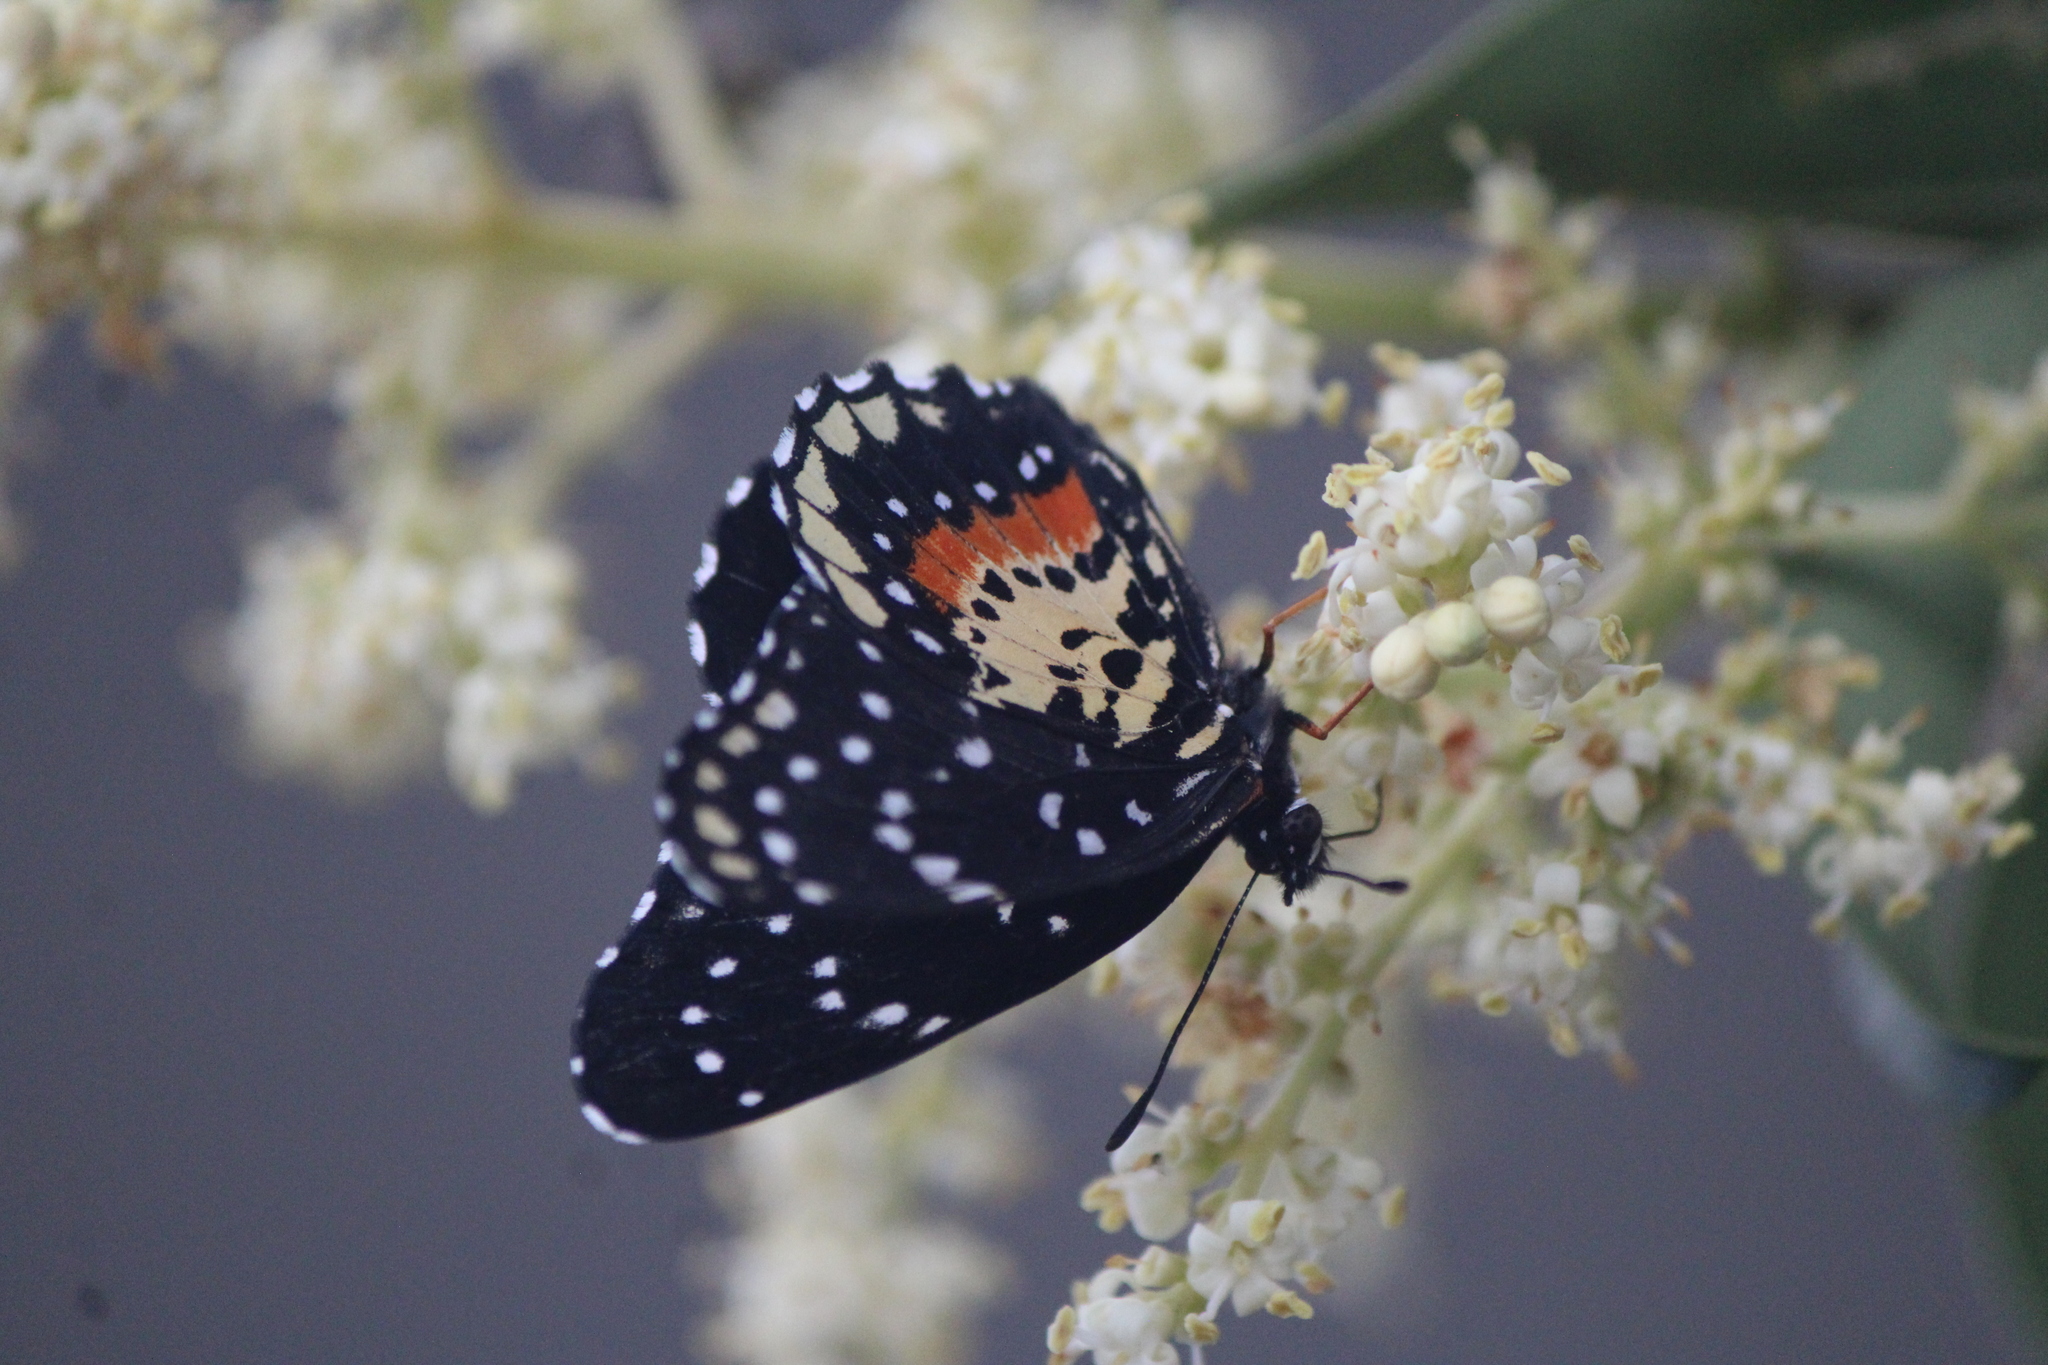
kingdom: Animalia
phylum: Arthropoda
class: Insecta
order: Lepidoptera
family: Nymphalidae
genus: Chlosyne
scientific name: Chlosyne janais
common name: Crimson patch
